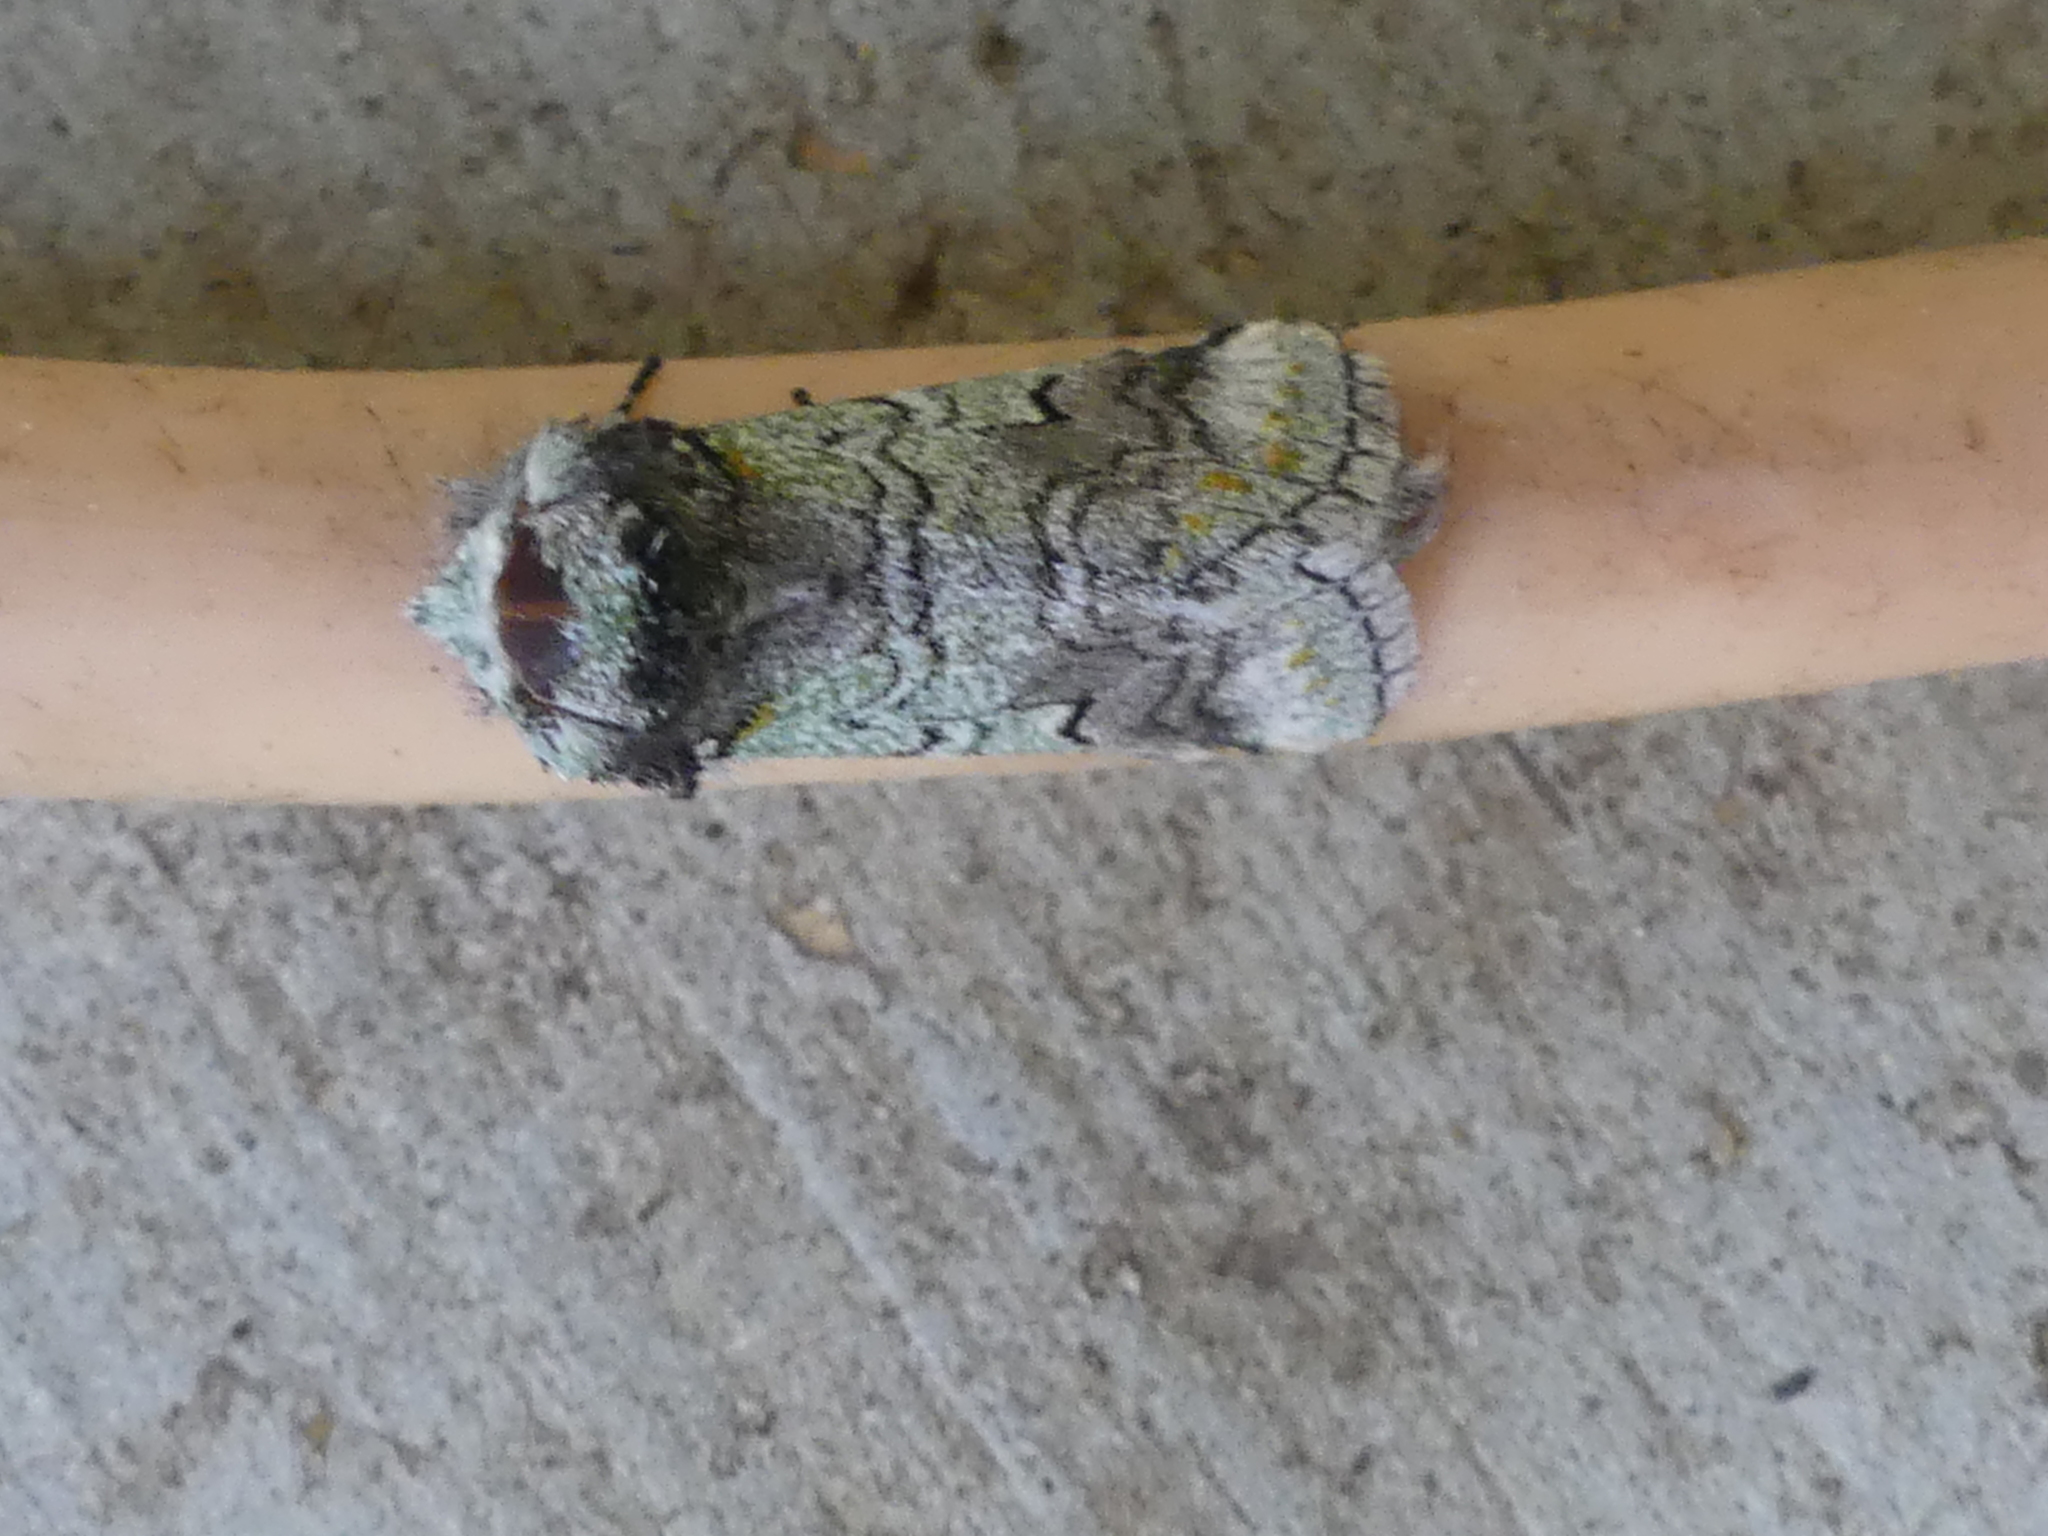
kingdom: Animalia
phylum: Arthropoda
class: Insecta
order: Lepidoptera
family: Notodontidae
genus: Litodonta
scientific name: Litodonta hydromeli
